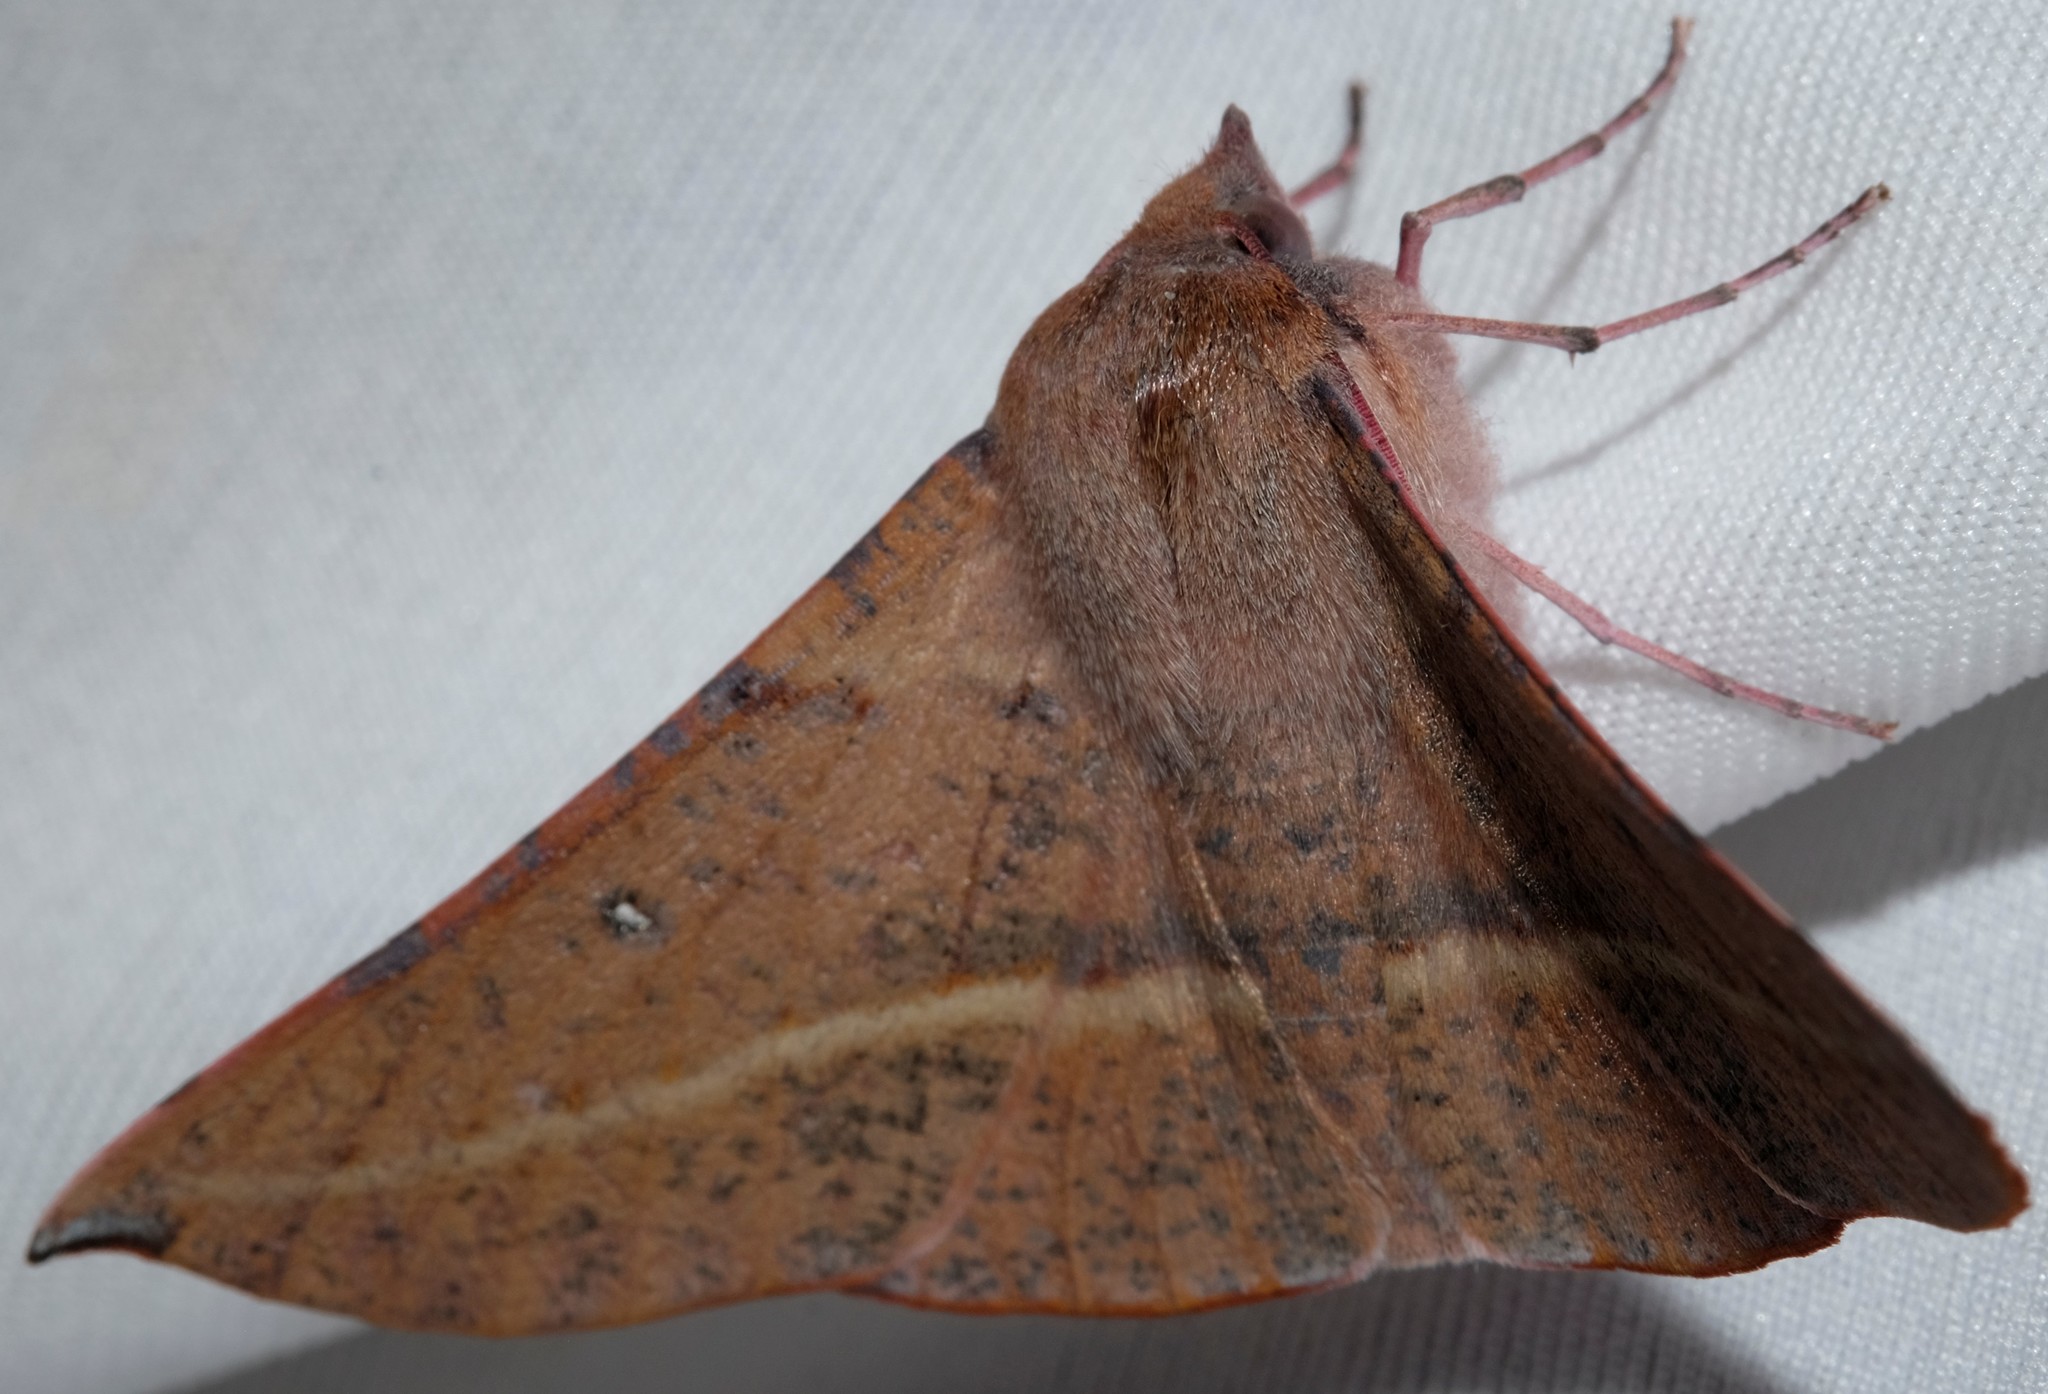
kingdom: Animalia
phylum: Arthropoda
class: Insecta
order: Lepidoptera
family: Geometridae
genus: Oenochroma
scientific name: Oenochroma vinaria
